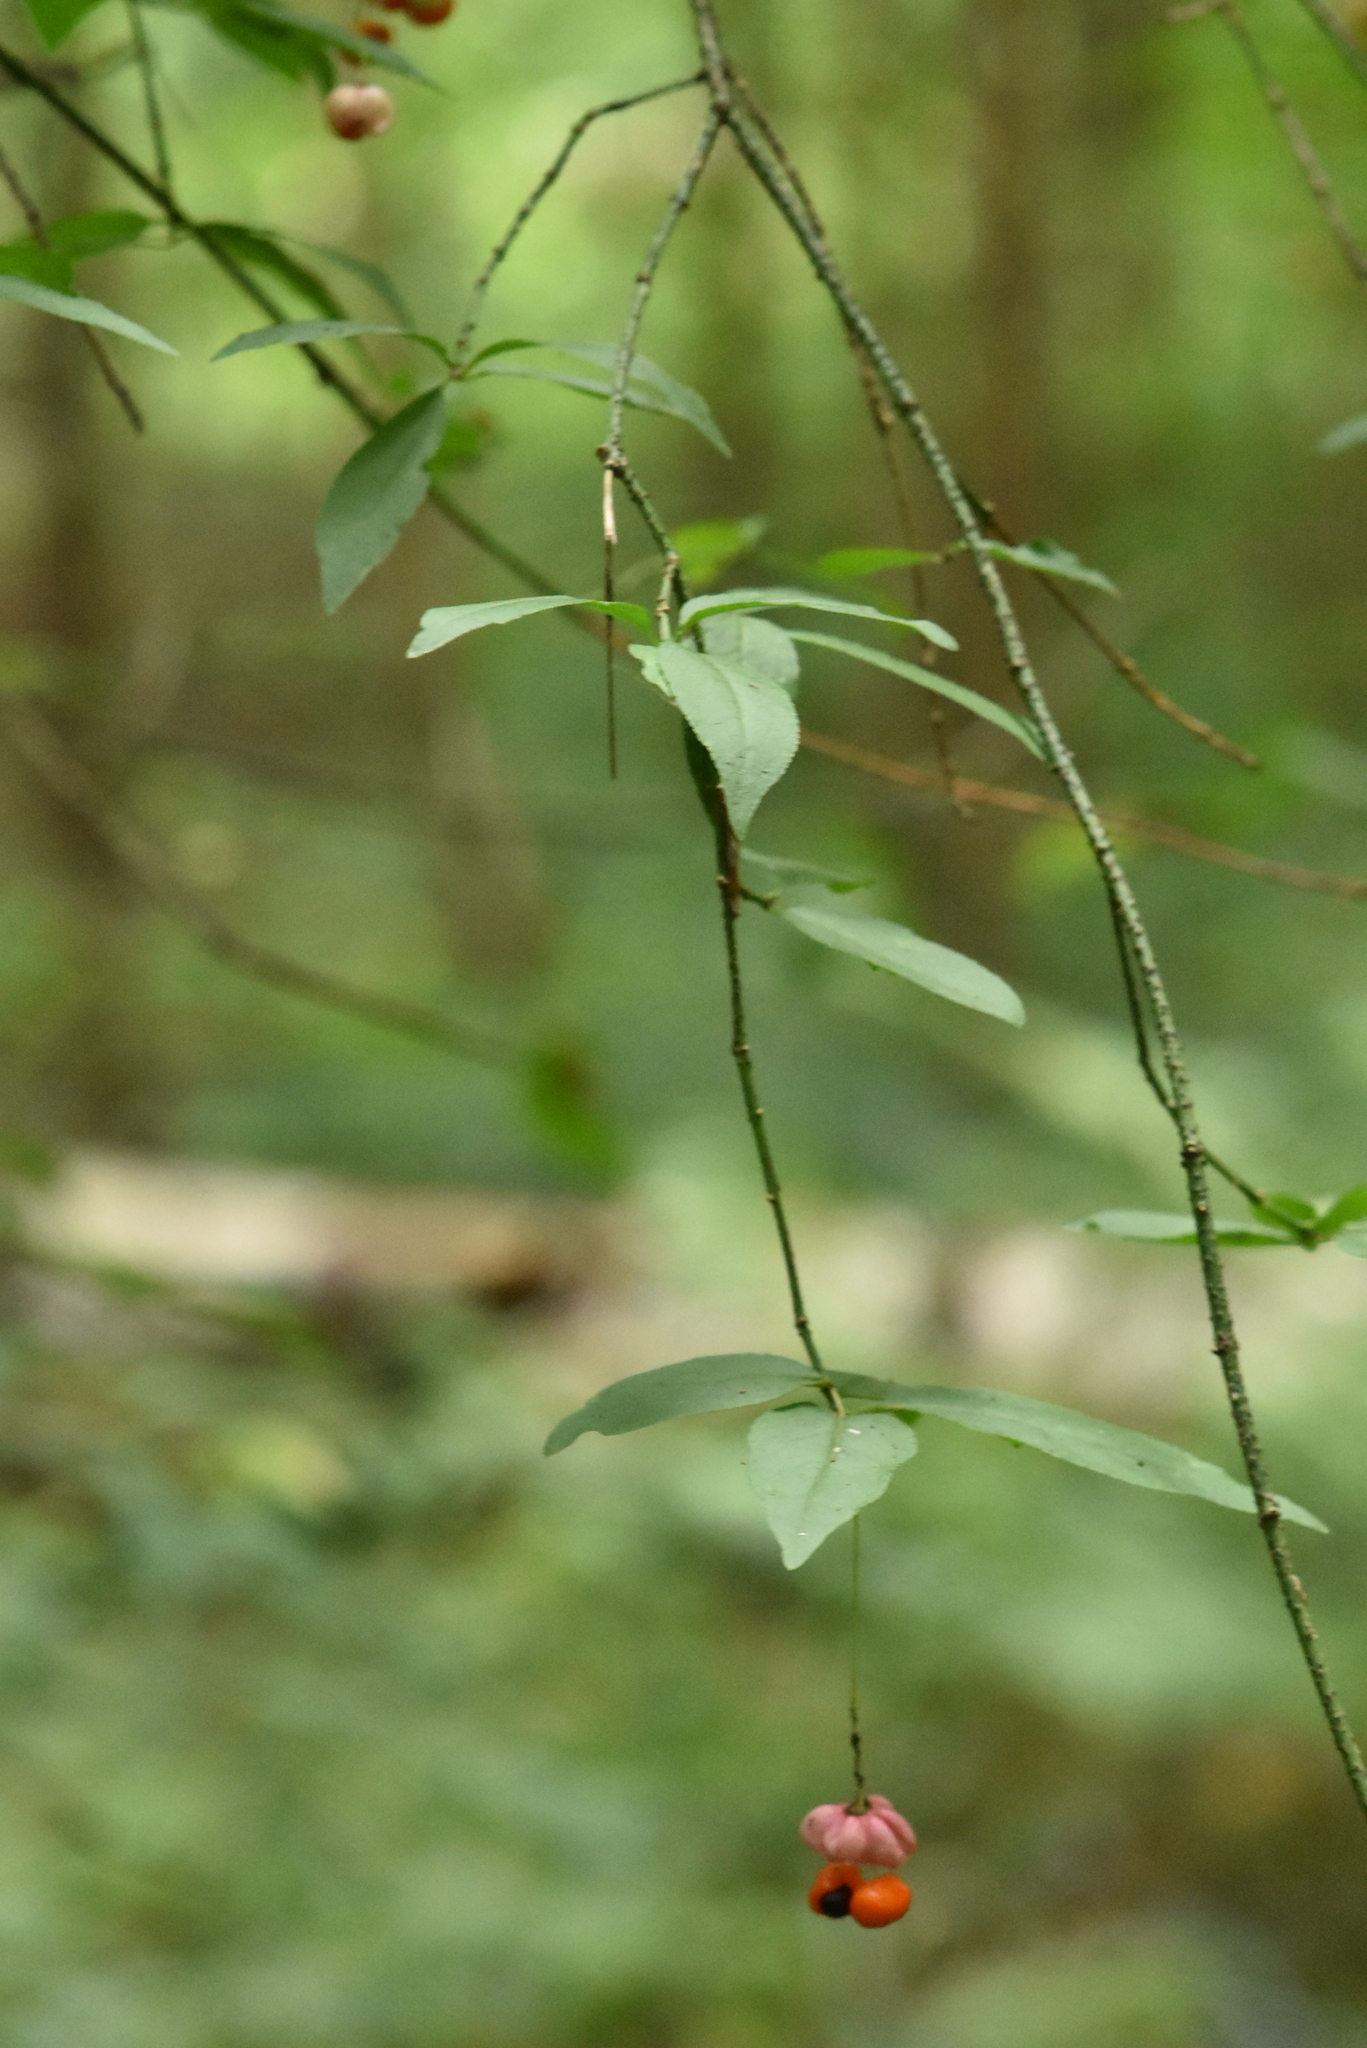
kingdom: Plantae
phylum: Tracheophyta
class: Magnoliopsida
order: Celastrales
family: Celastraceae
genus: Euonymus
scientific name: Euonymus verrucosus
